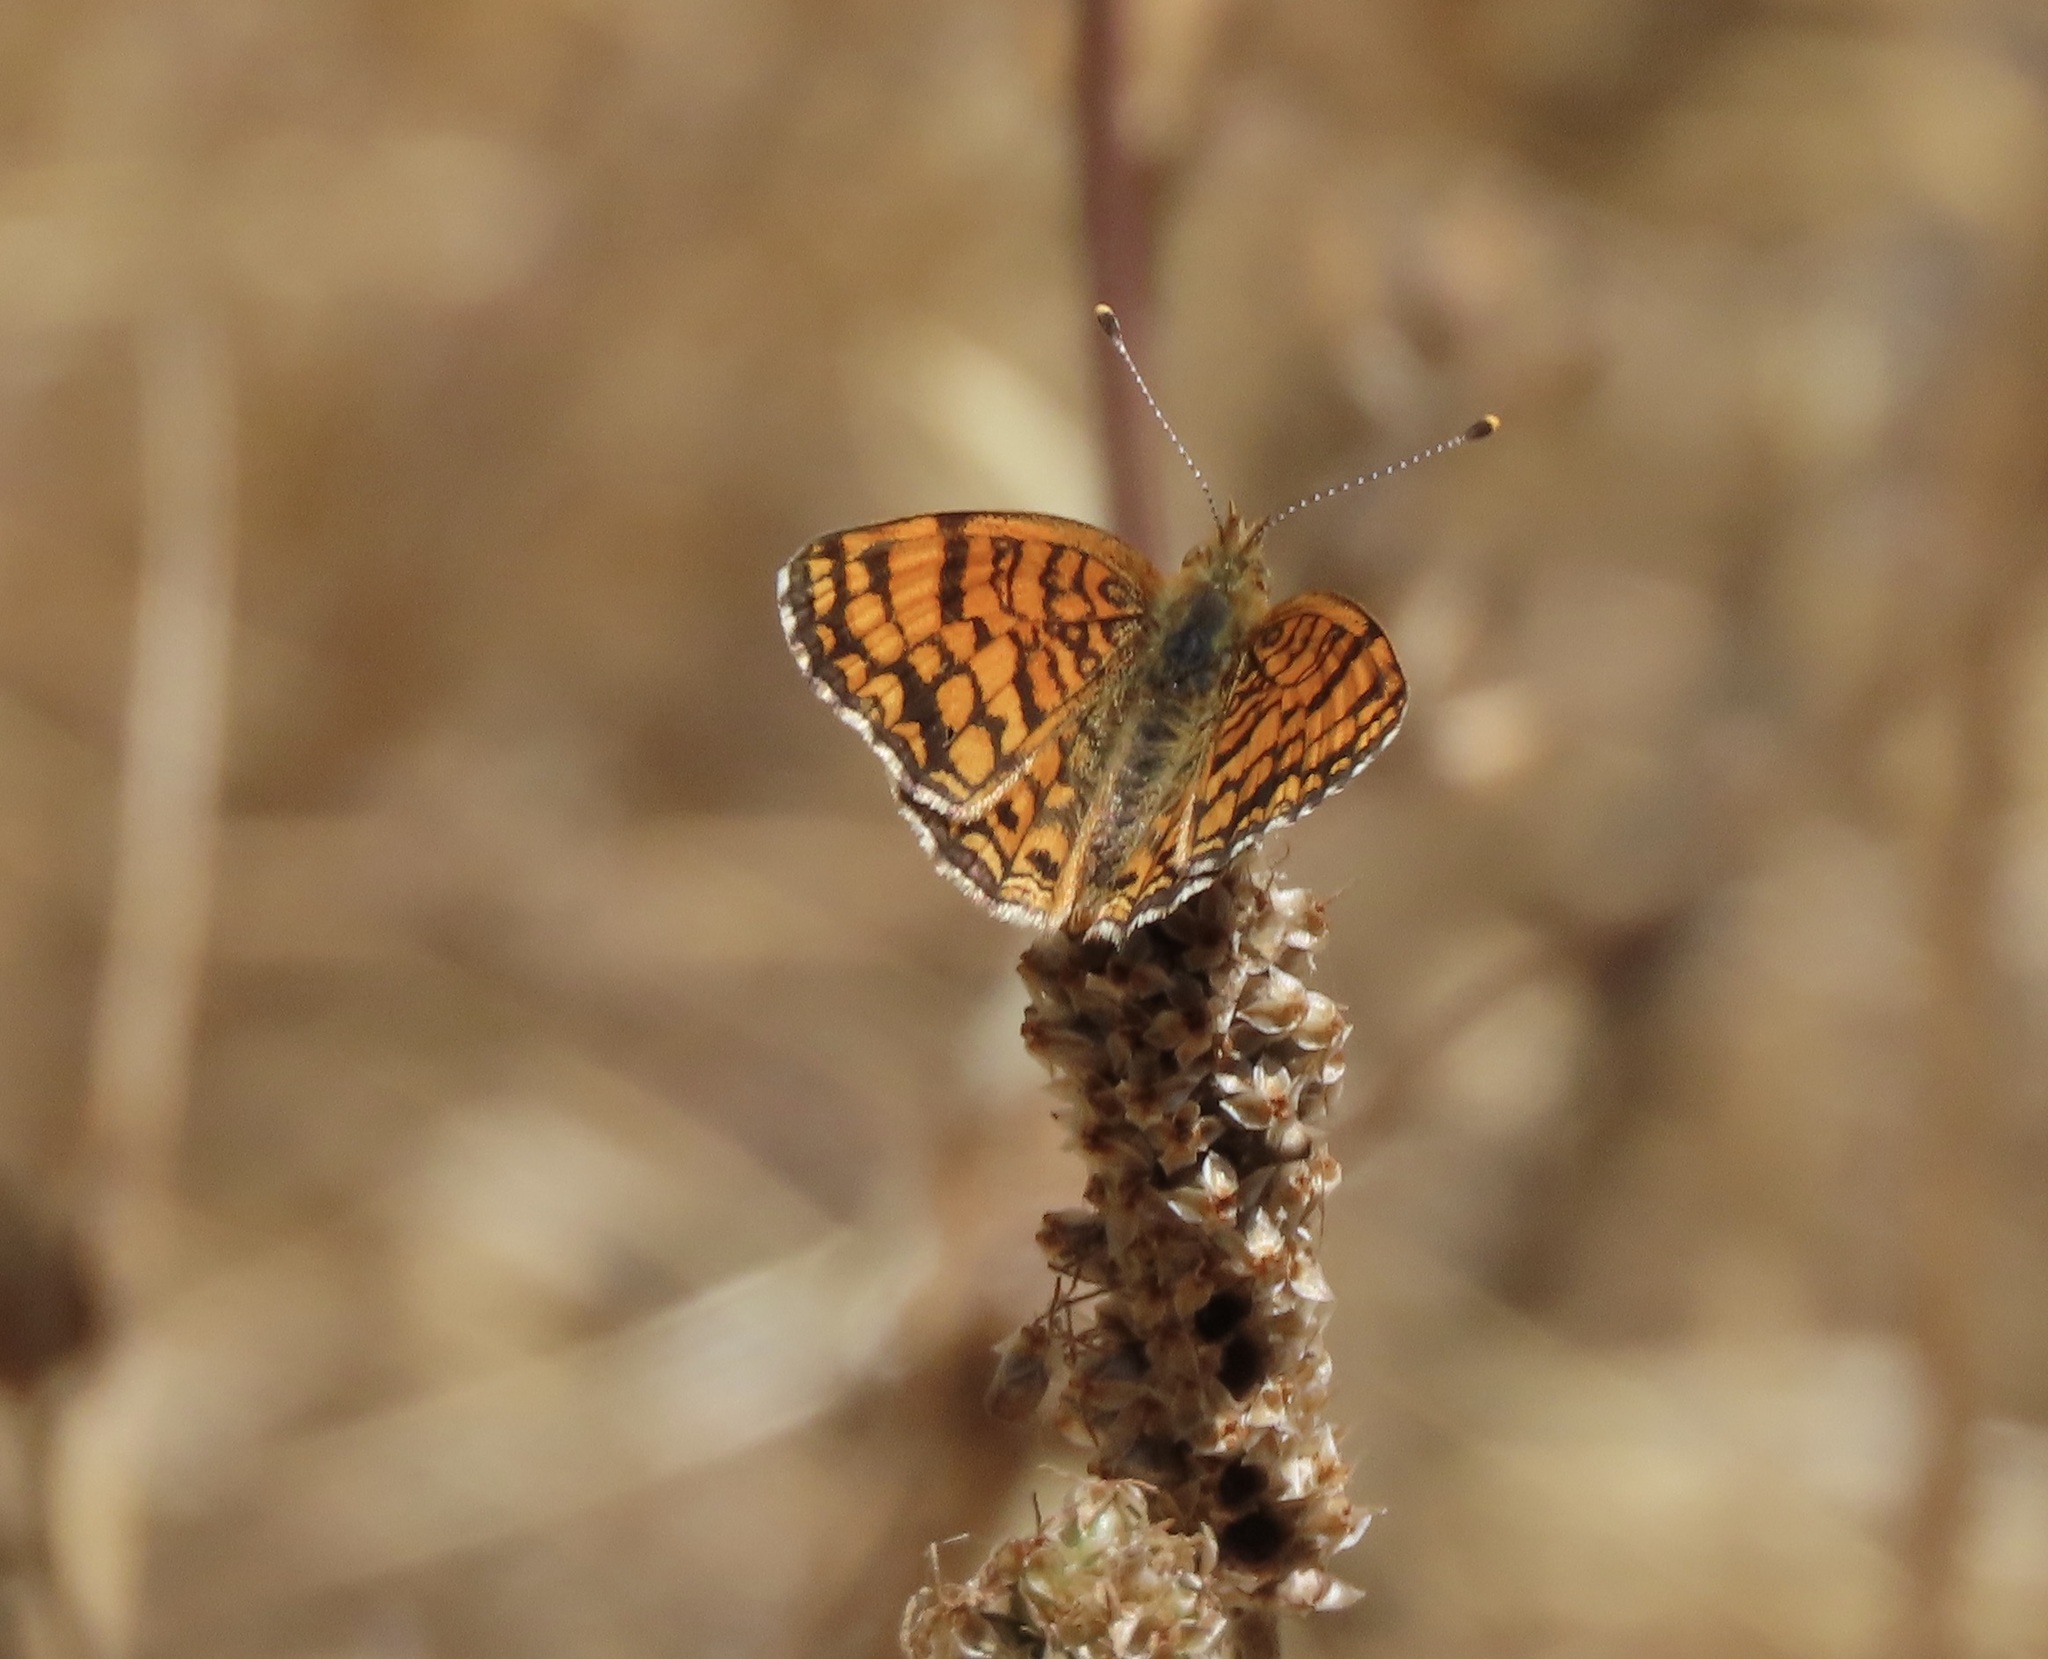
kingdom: Animalia
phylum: Arthropoda
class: Insecta
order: Lepidoptera
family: Nymphalidae
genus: Eresia
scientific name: Eresia aveyrona
